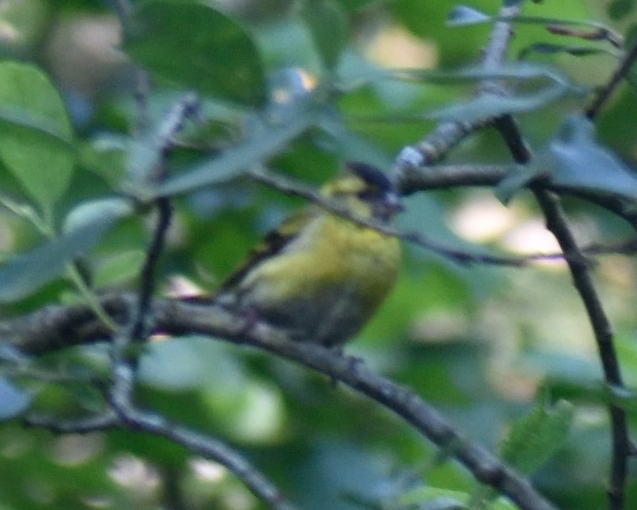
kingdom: Animalia
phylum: Chordata
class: Aves
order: Passeriformes
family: Fringillidae
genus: Spinus
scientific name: Spinus spinus
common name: Eurasian siskin
